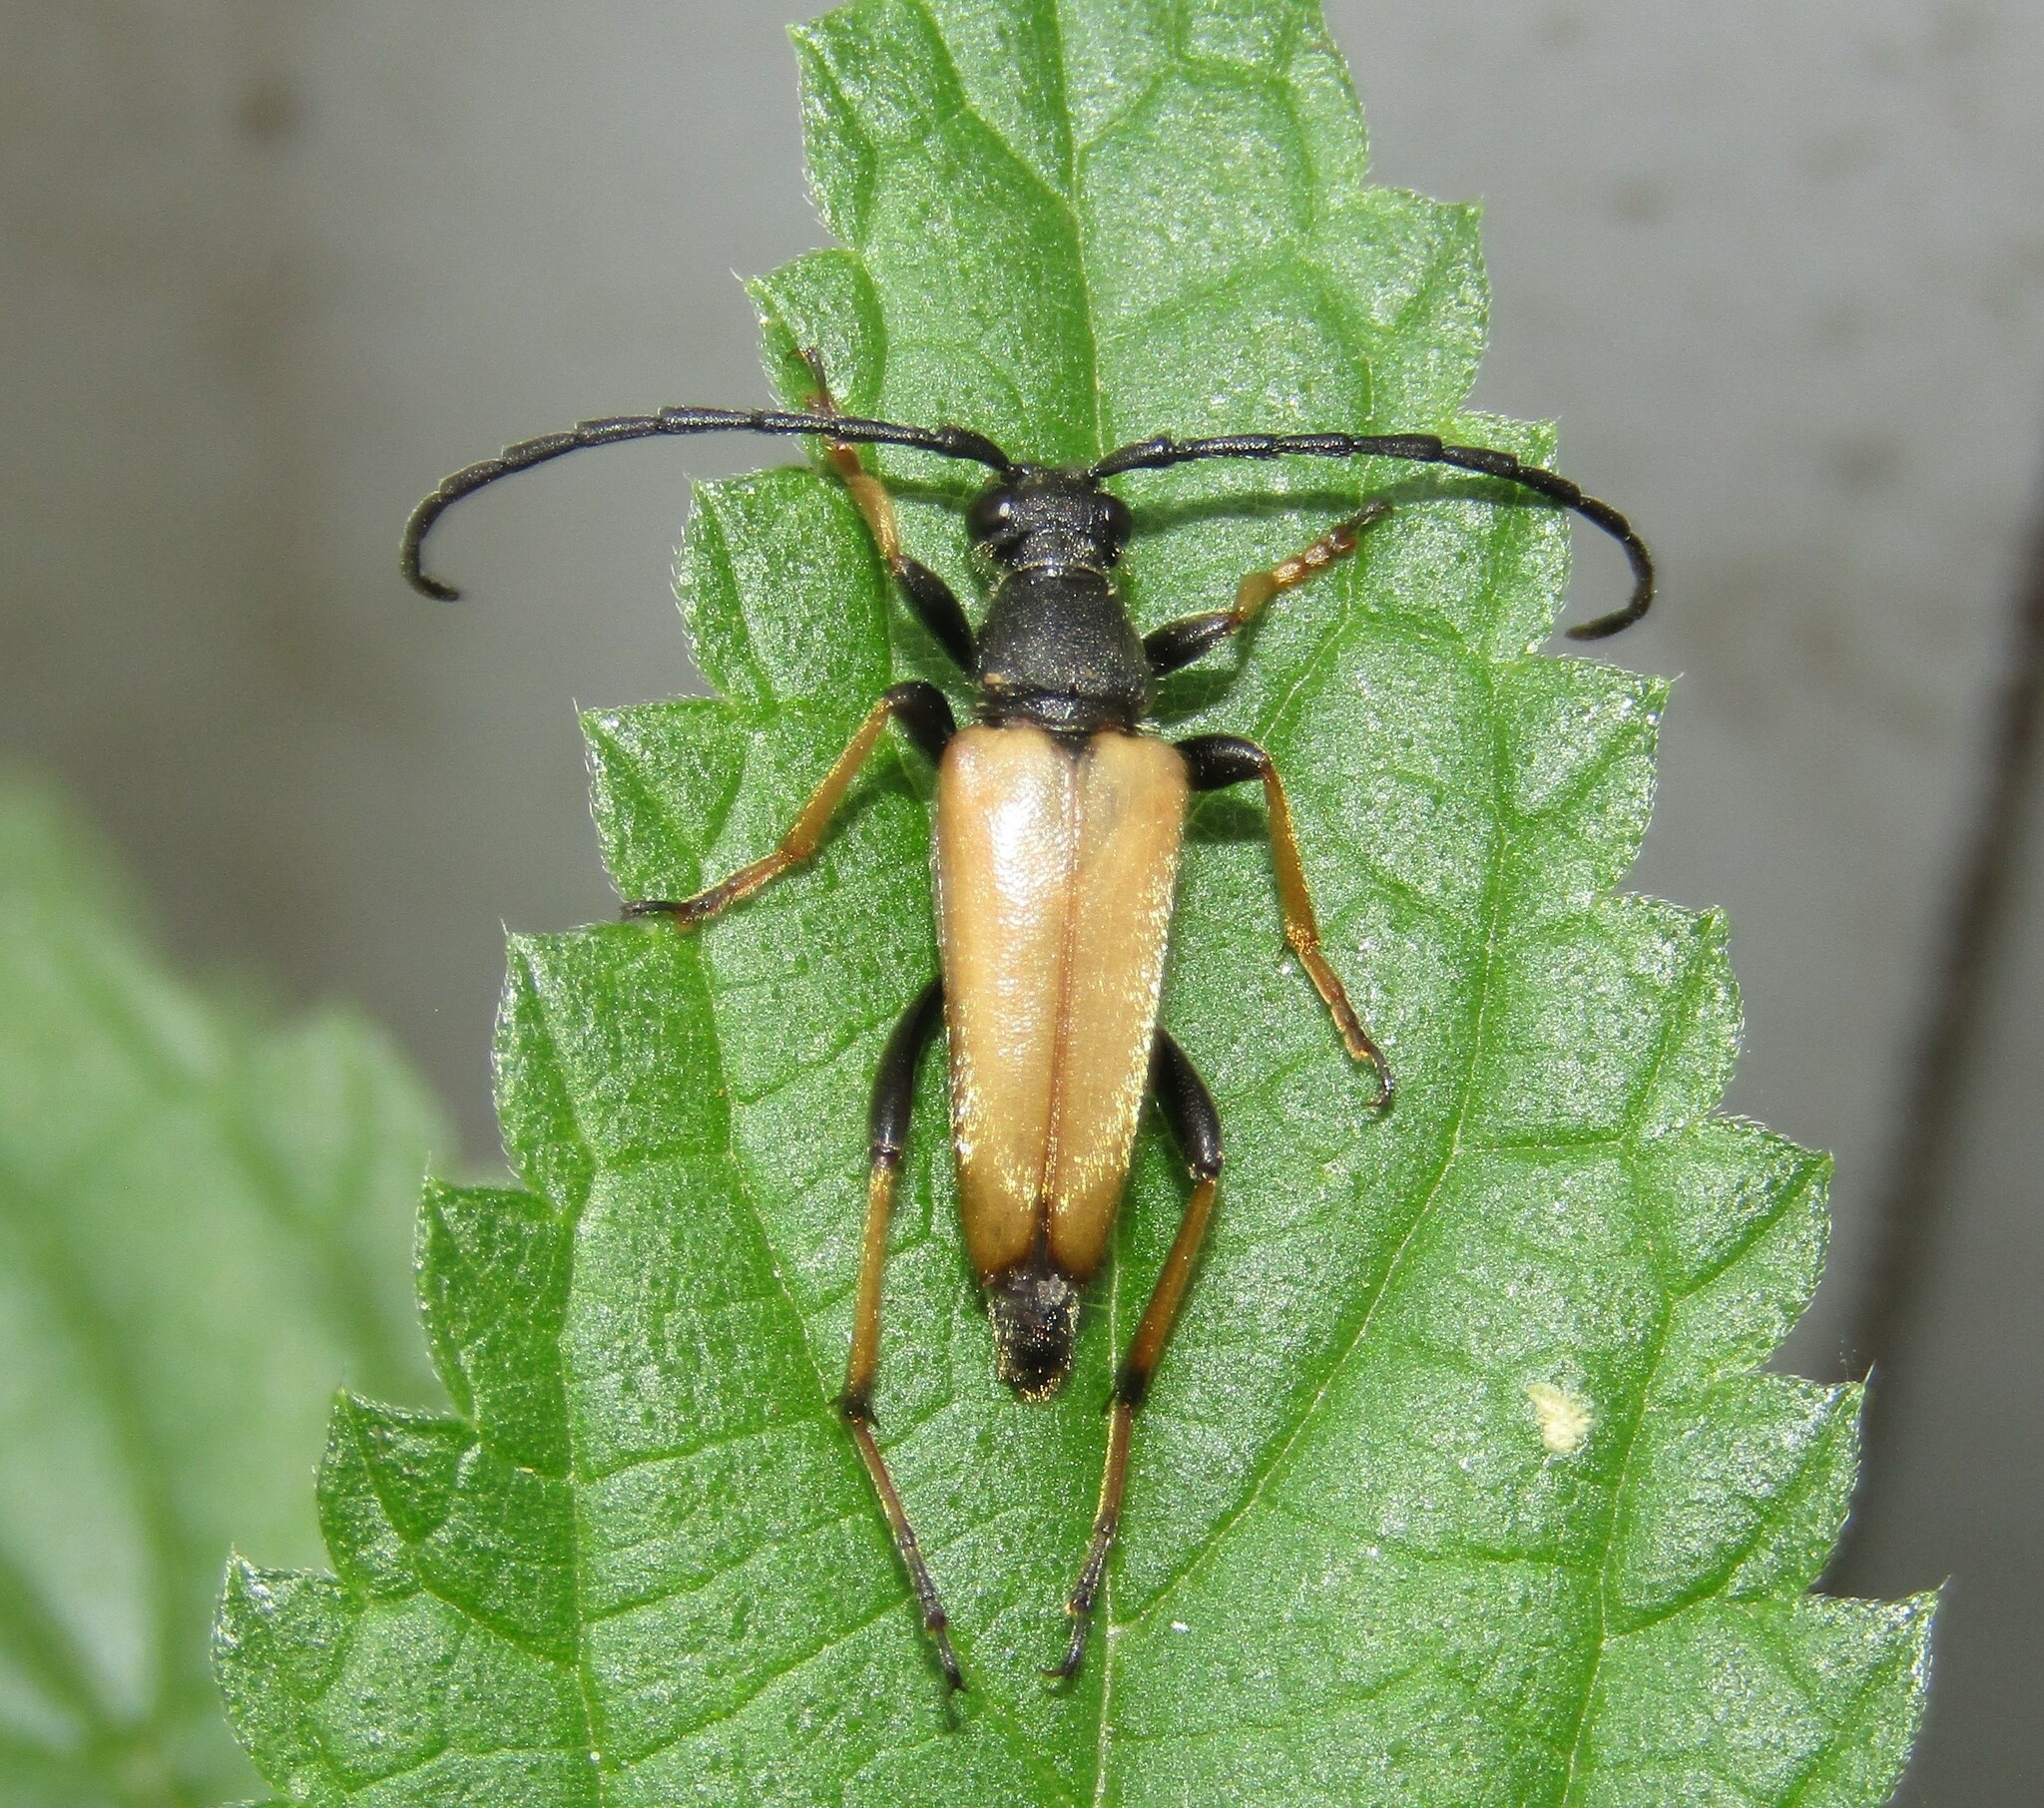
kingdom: Animalia
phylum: Arthropoda
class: Insecta
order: Coleoptera
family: Cerambycidae
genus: Stictoleptura
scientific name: Stictoleptura rubra
